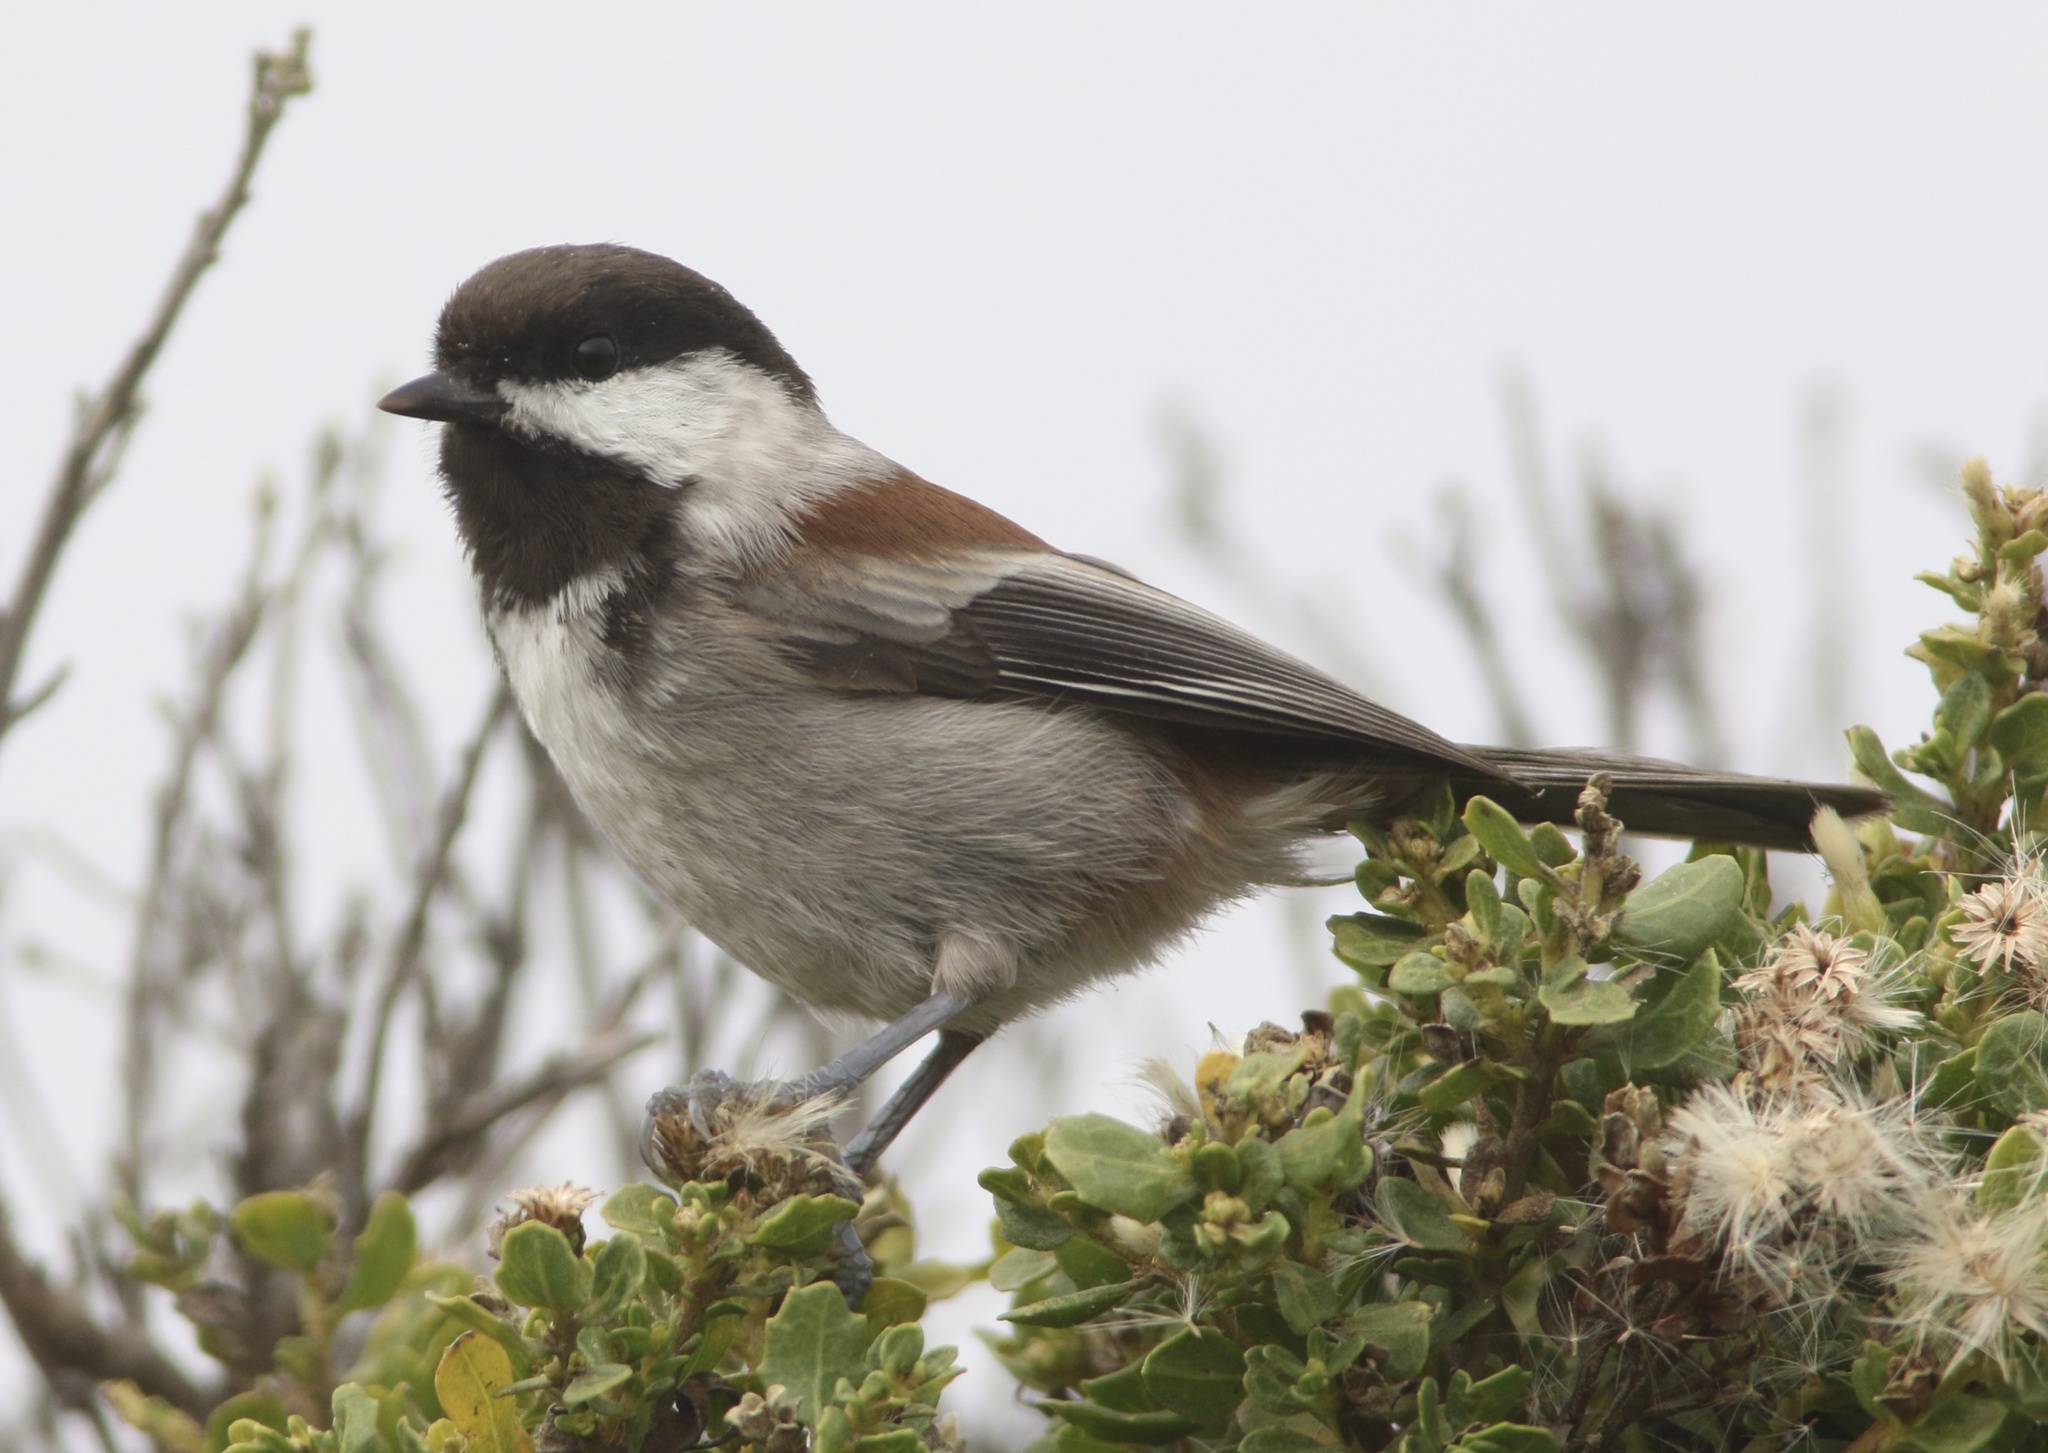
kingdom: Animalia
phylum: Chordata
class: Aves
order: Passeriformes
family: Paridae
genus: Poecile
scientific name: Poecile rufescens
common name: Chestnut-backed chickadee
